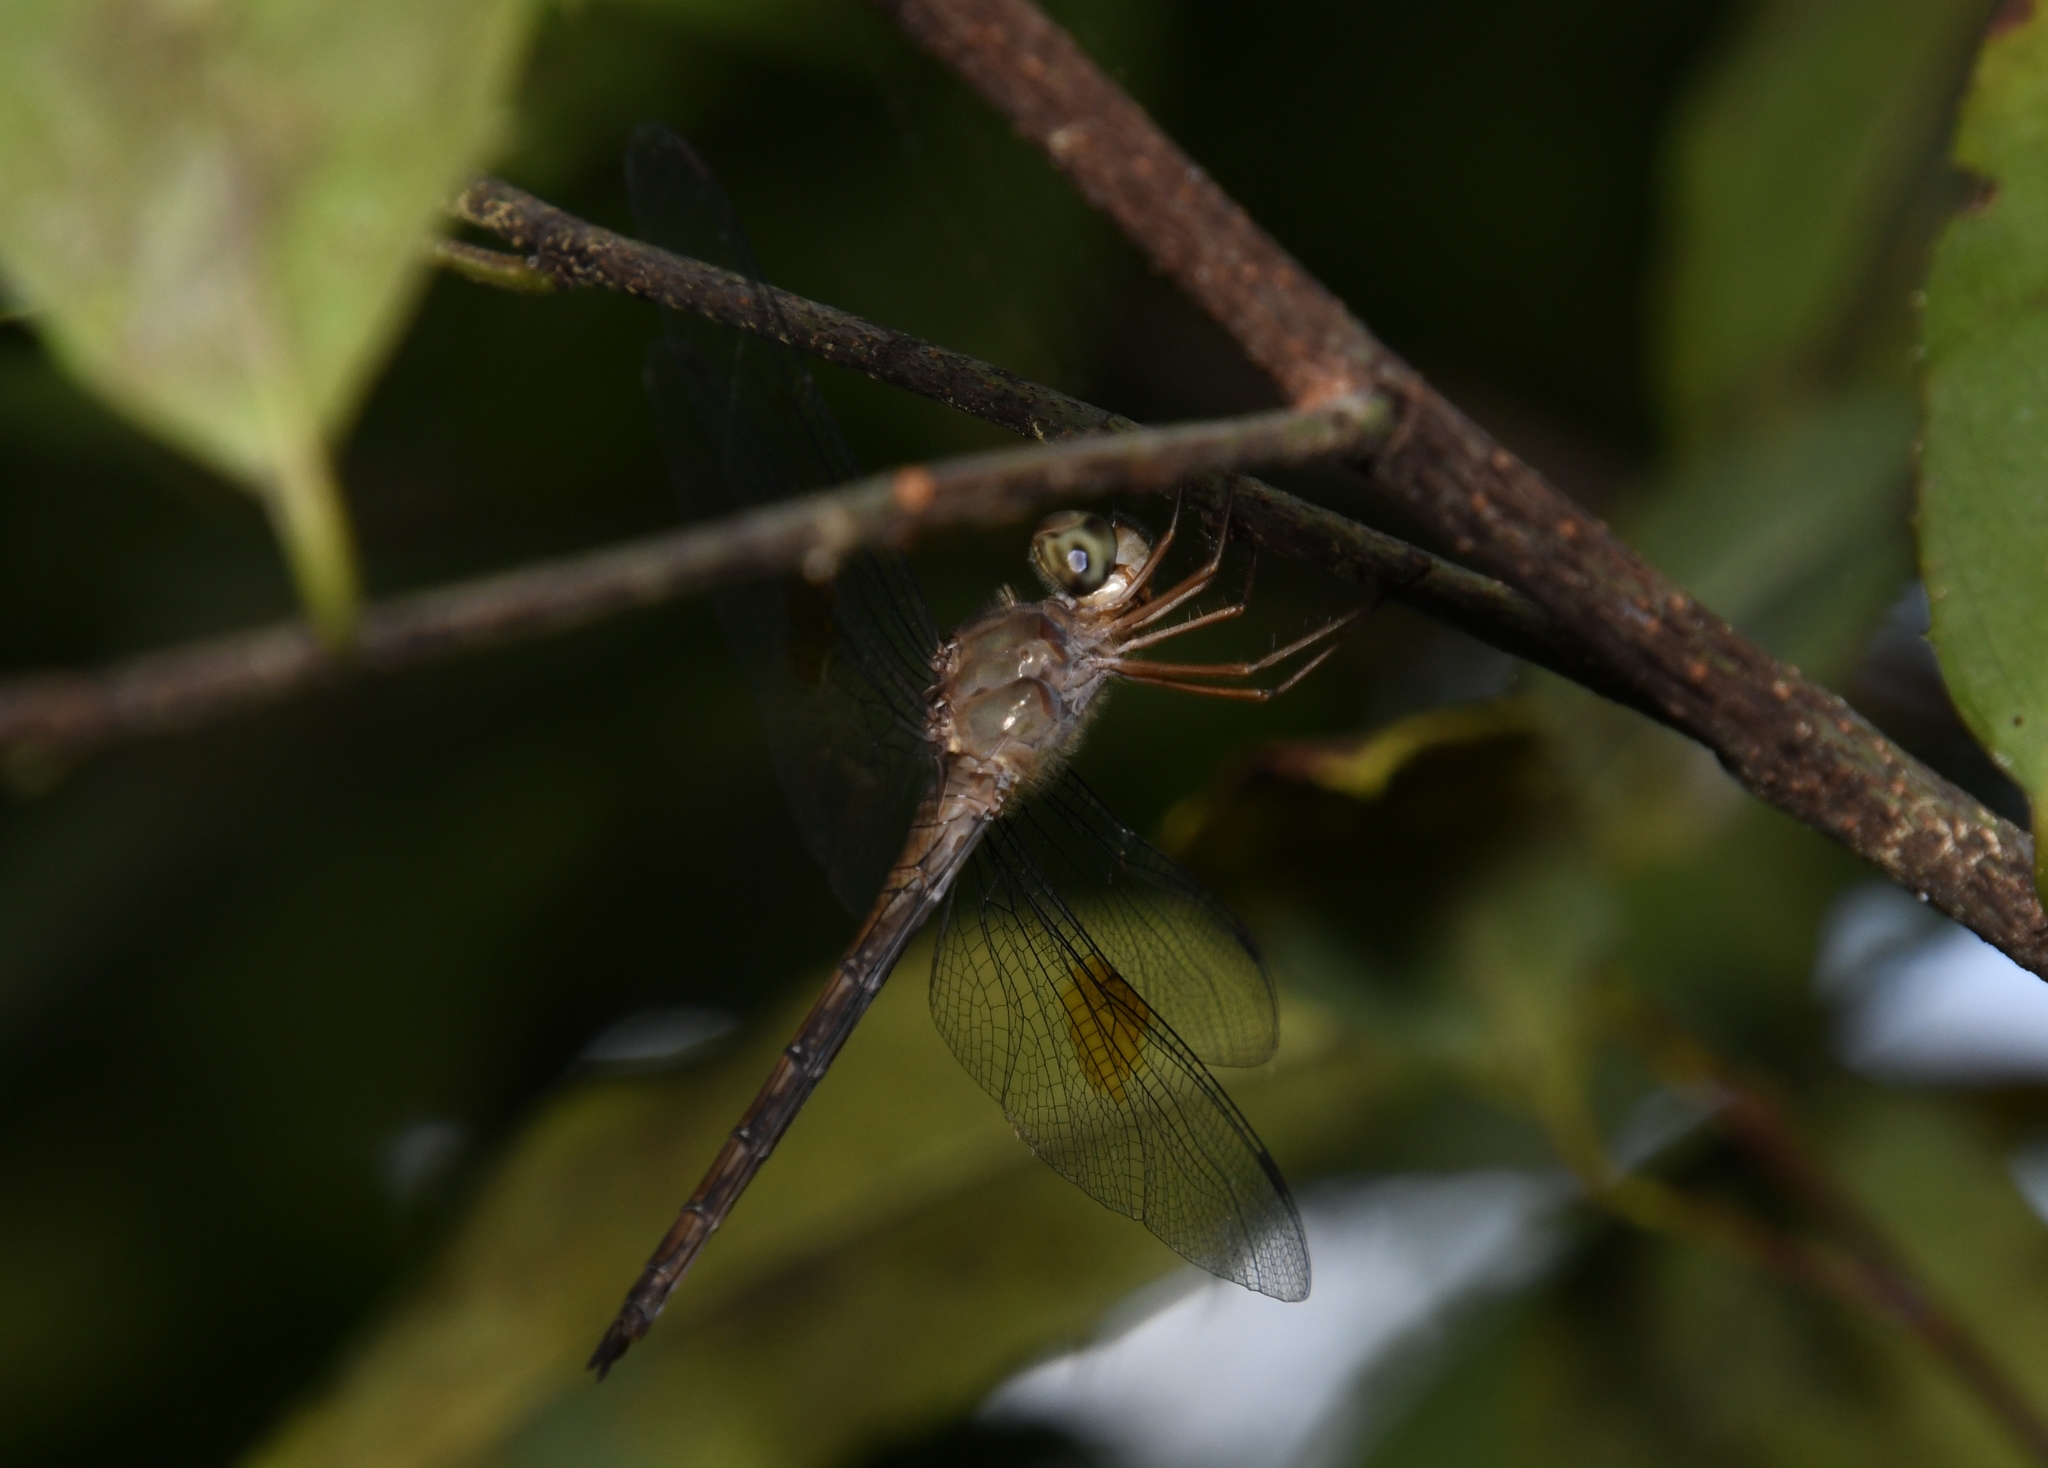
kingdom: Animalia
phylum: Arthropoda
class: Insecta
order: Odonata
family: Libellulidae
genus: Tholymis
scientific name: Tholymis citrina
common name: Evening skimmer
